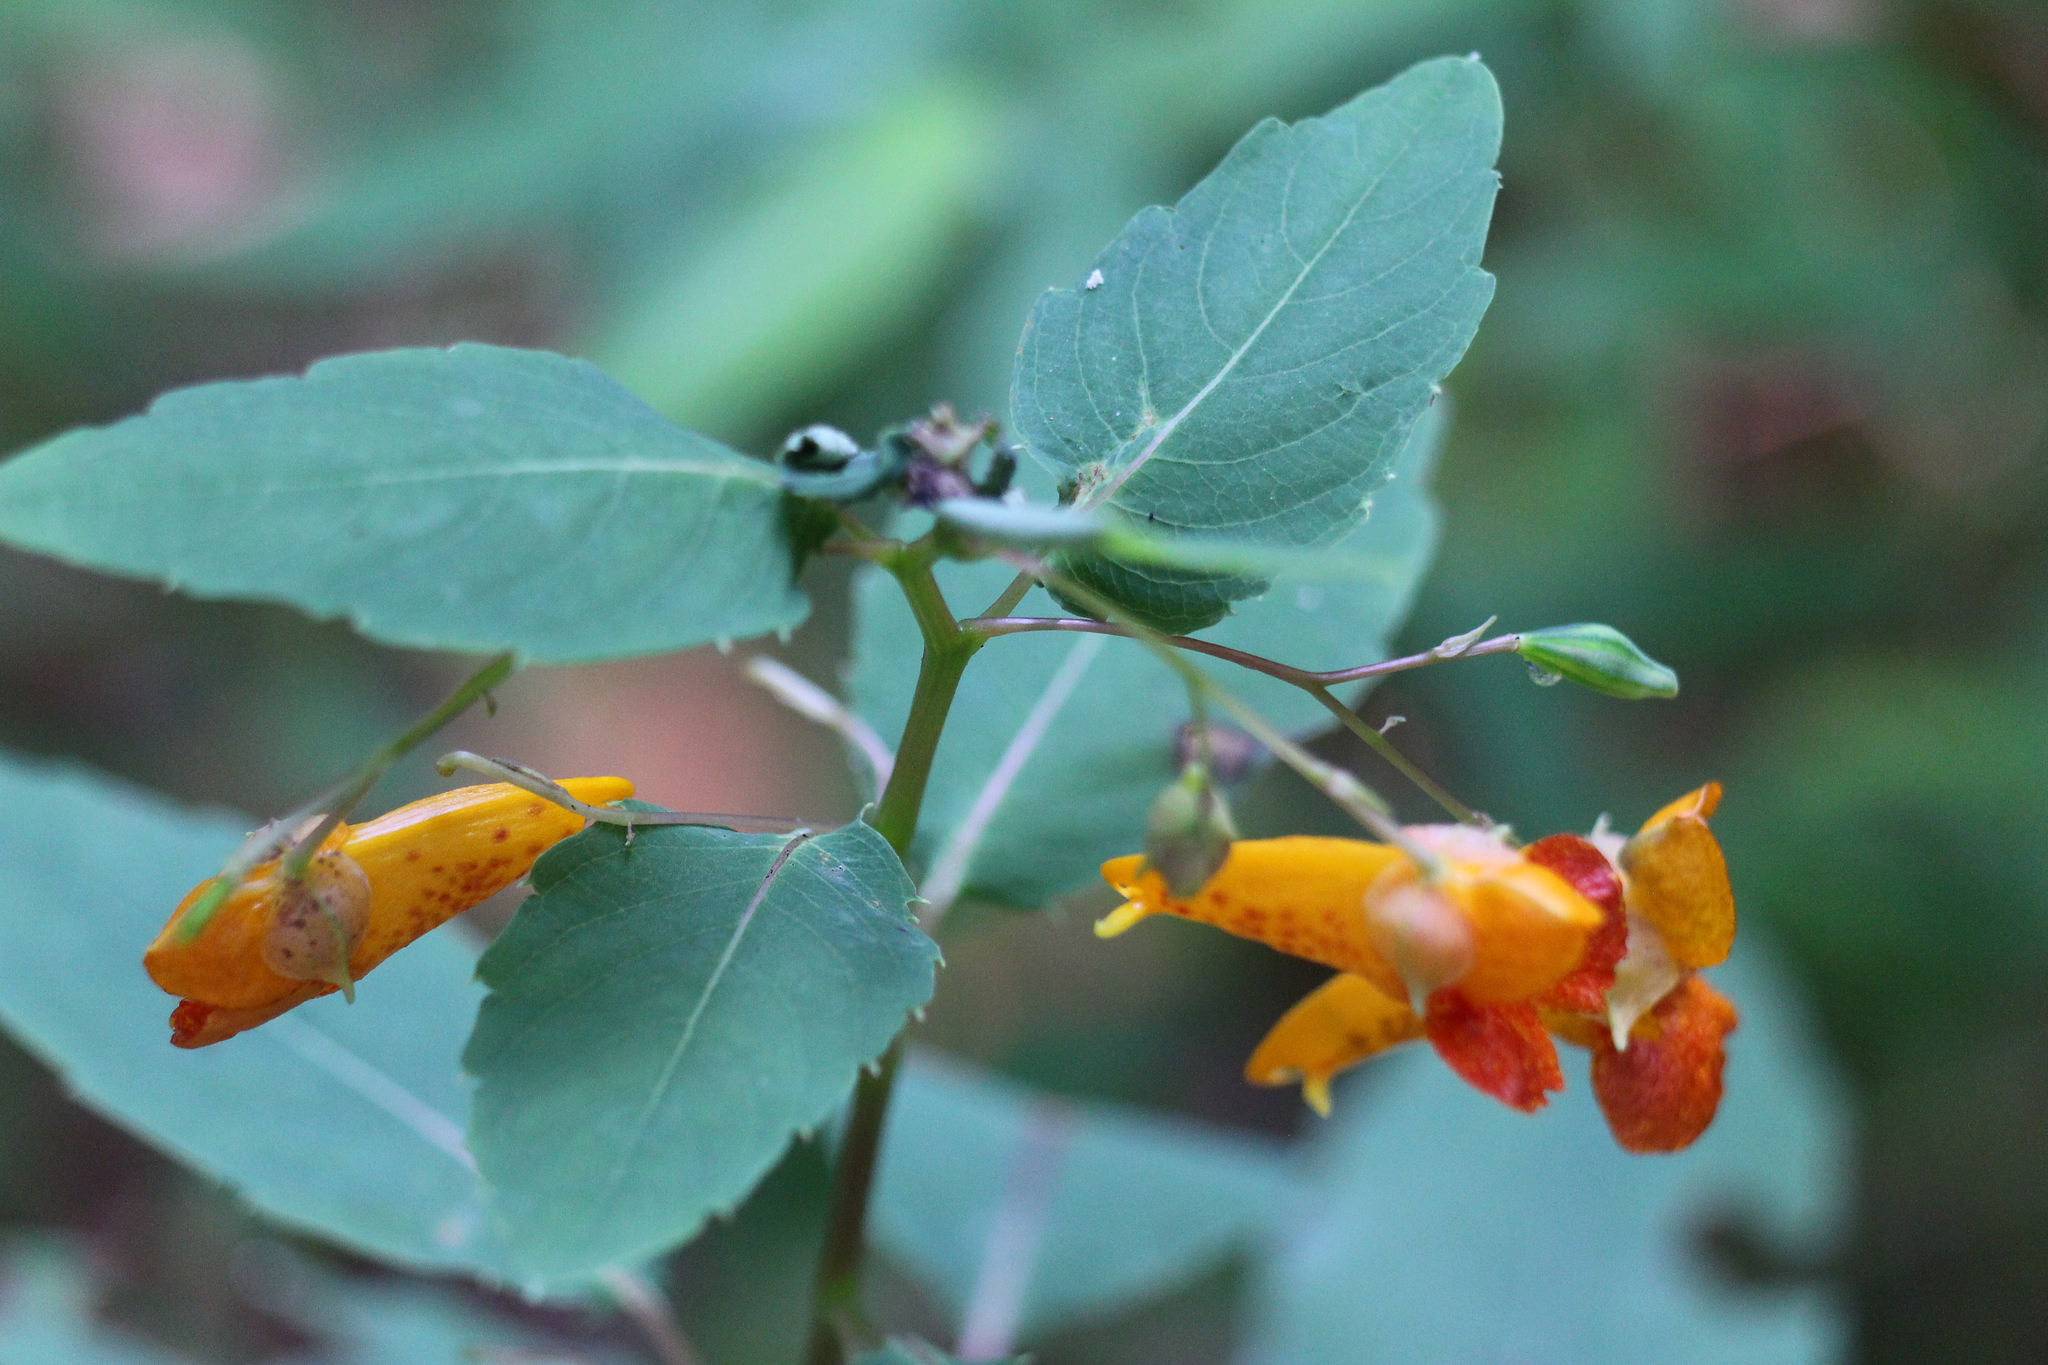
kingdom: Plantae
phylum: Tracheophyta
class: Magnoliopsida
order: Ericales
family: Balsaminaceae
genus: Impatiens
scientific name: Impatiens capensis
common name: Orange balsam
